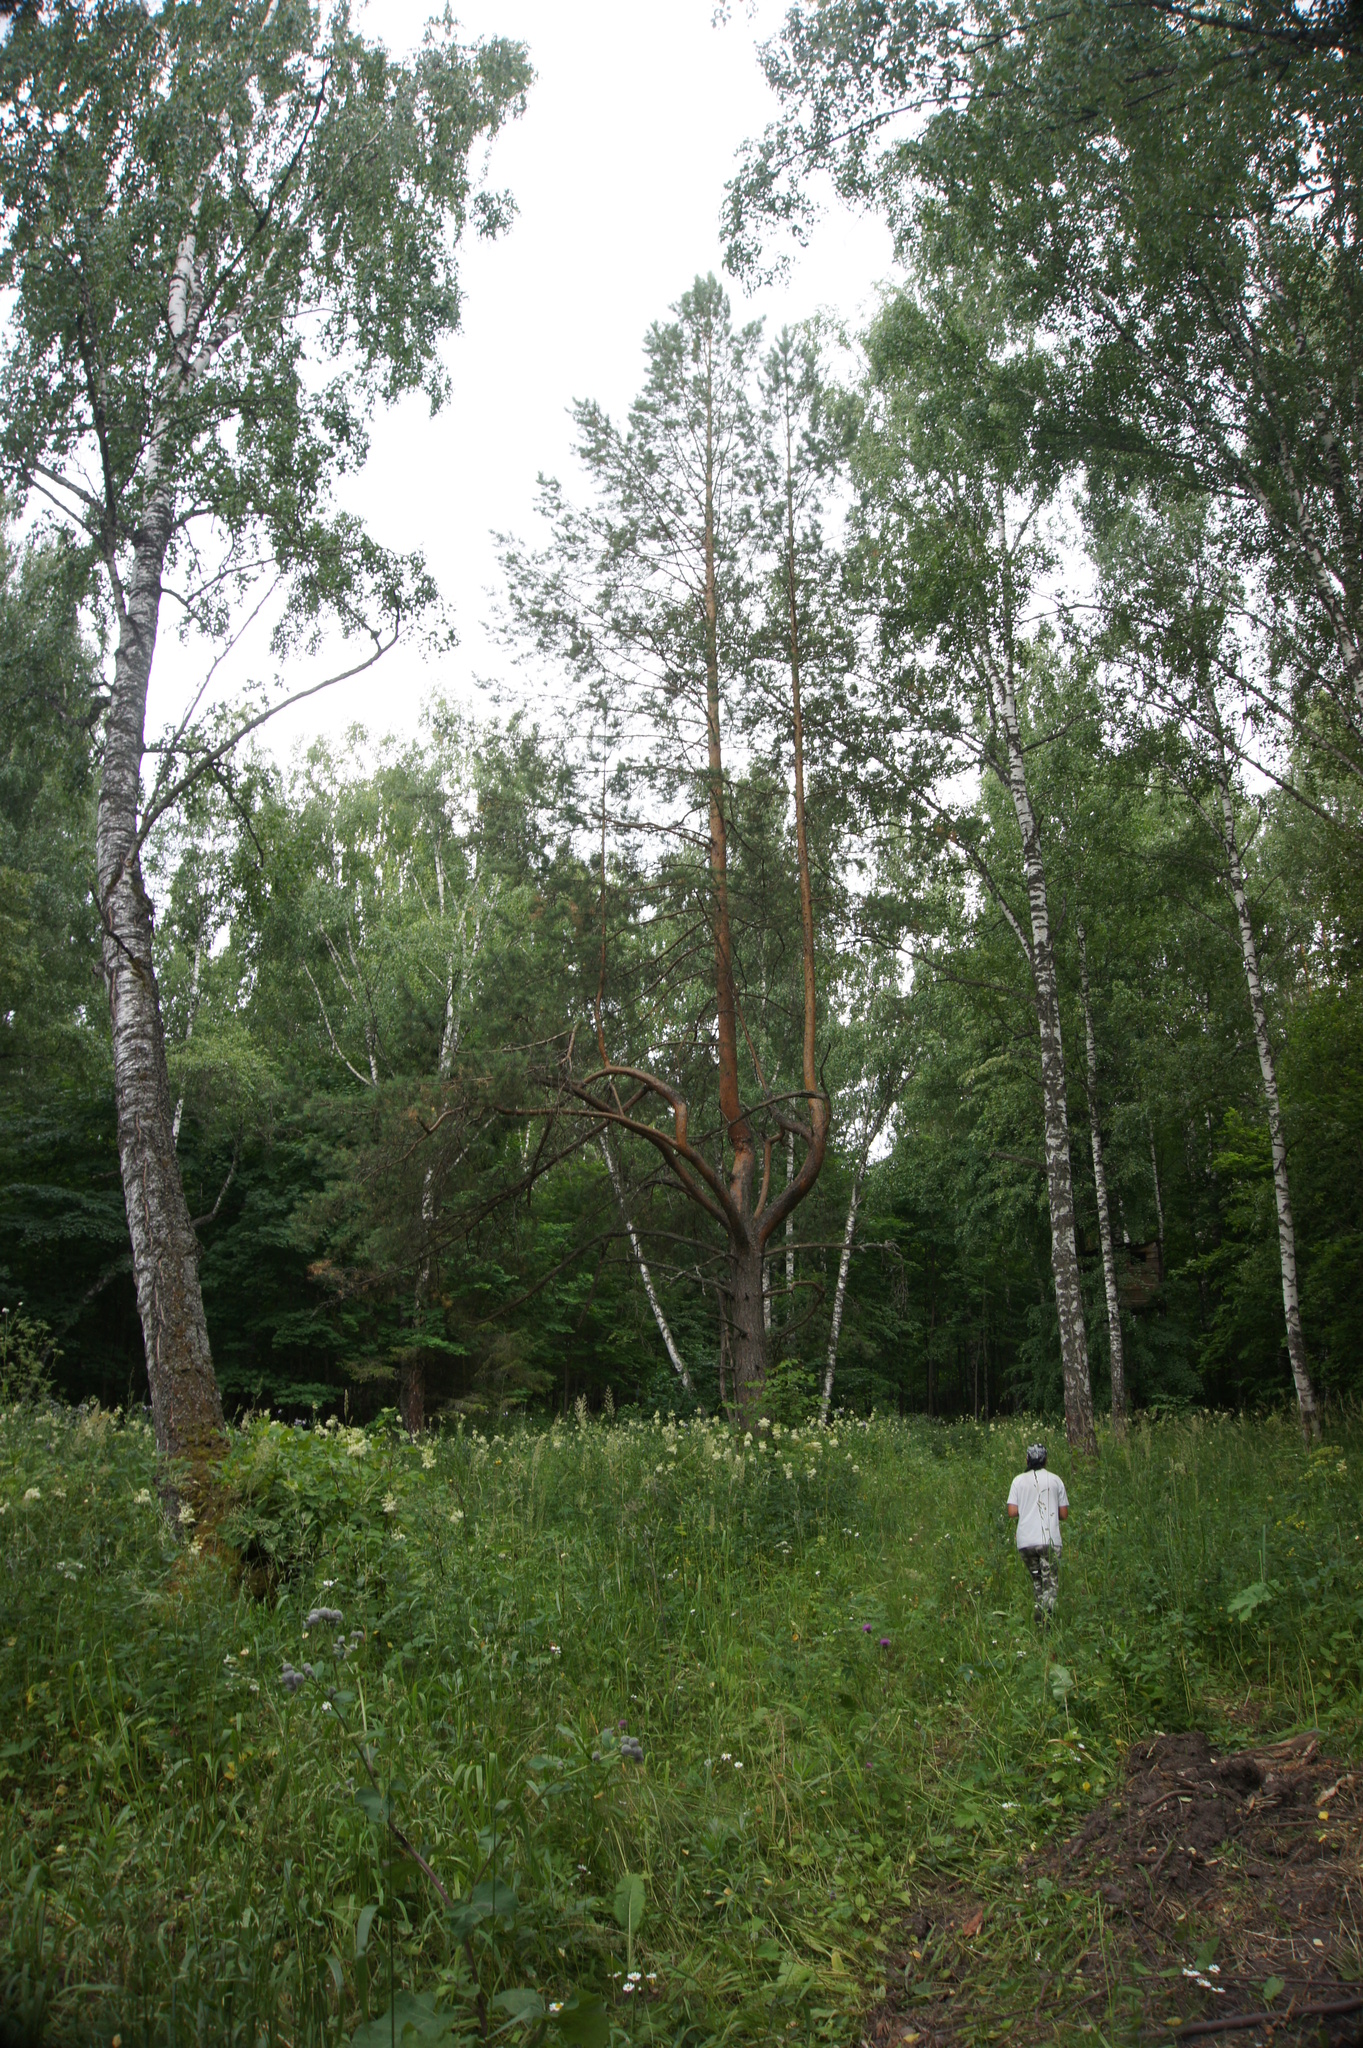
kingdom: Plantae
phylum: Tracheophyta
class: Pinopsida
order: Pinales
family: Pinaceae
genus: Pinus
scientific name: Pinus sylvestris
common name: Scots pine
